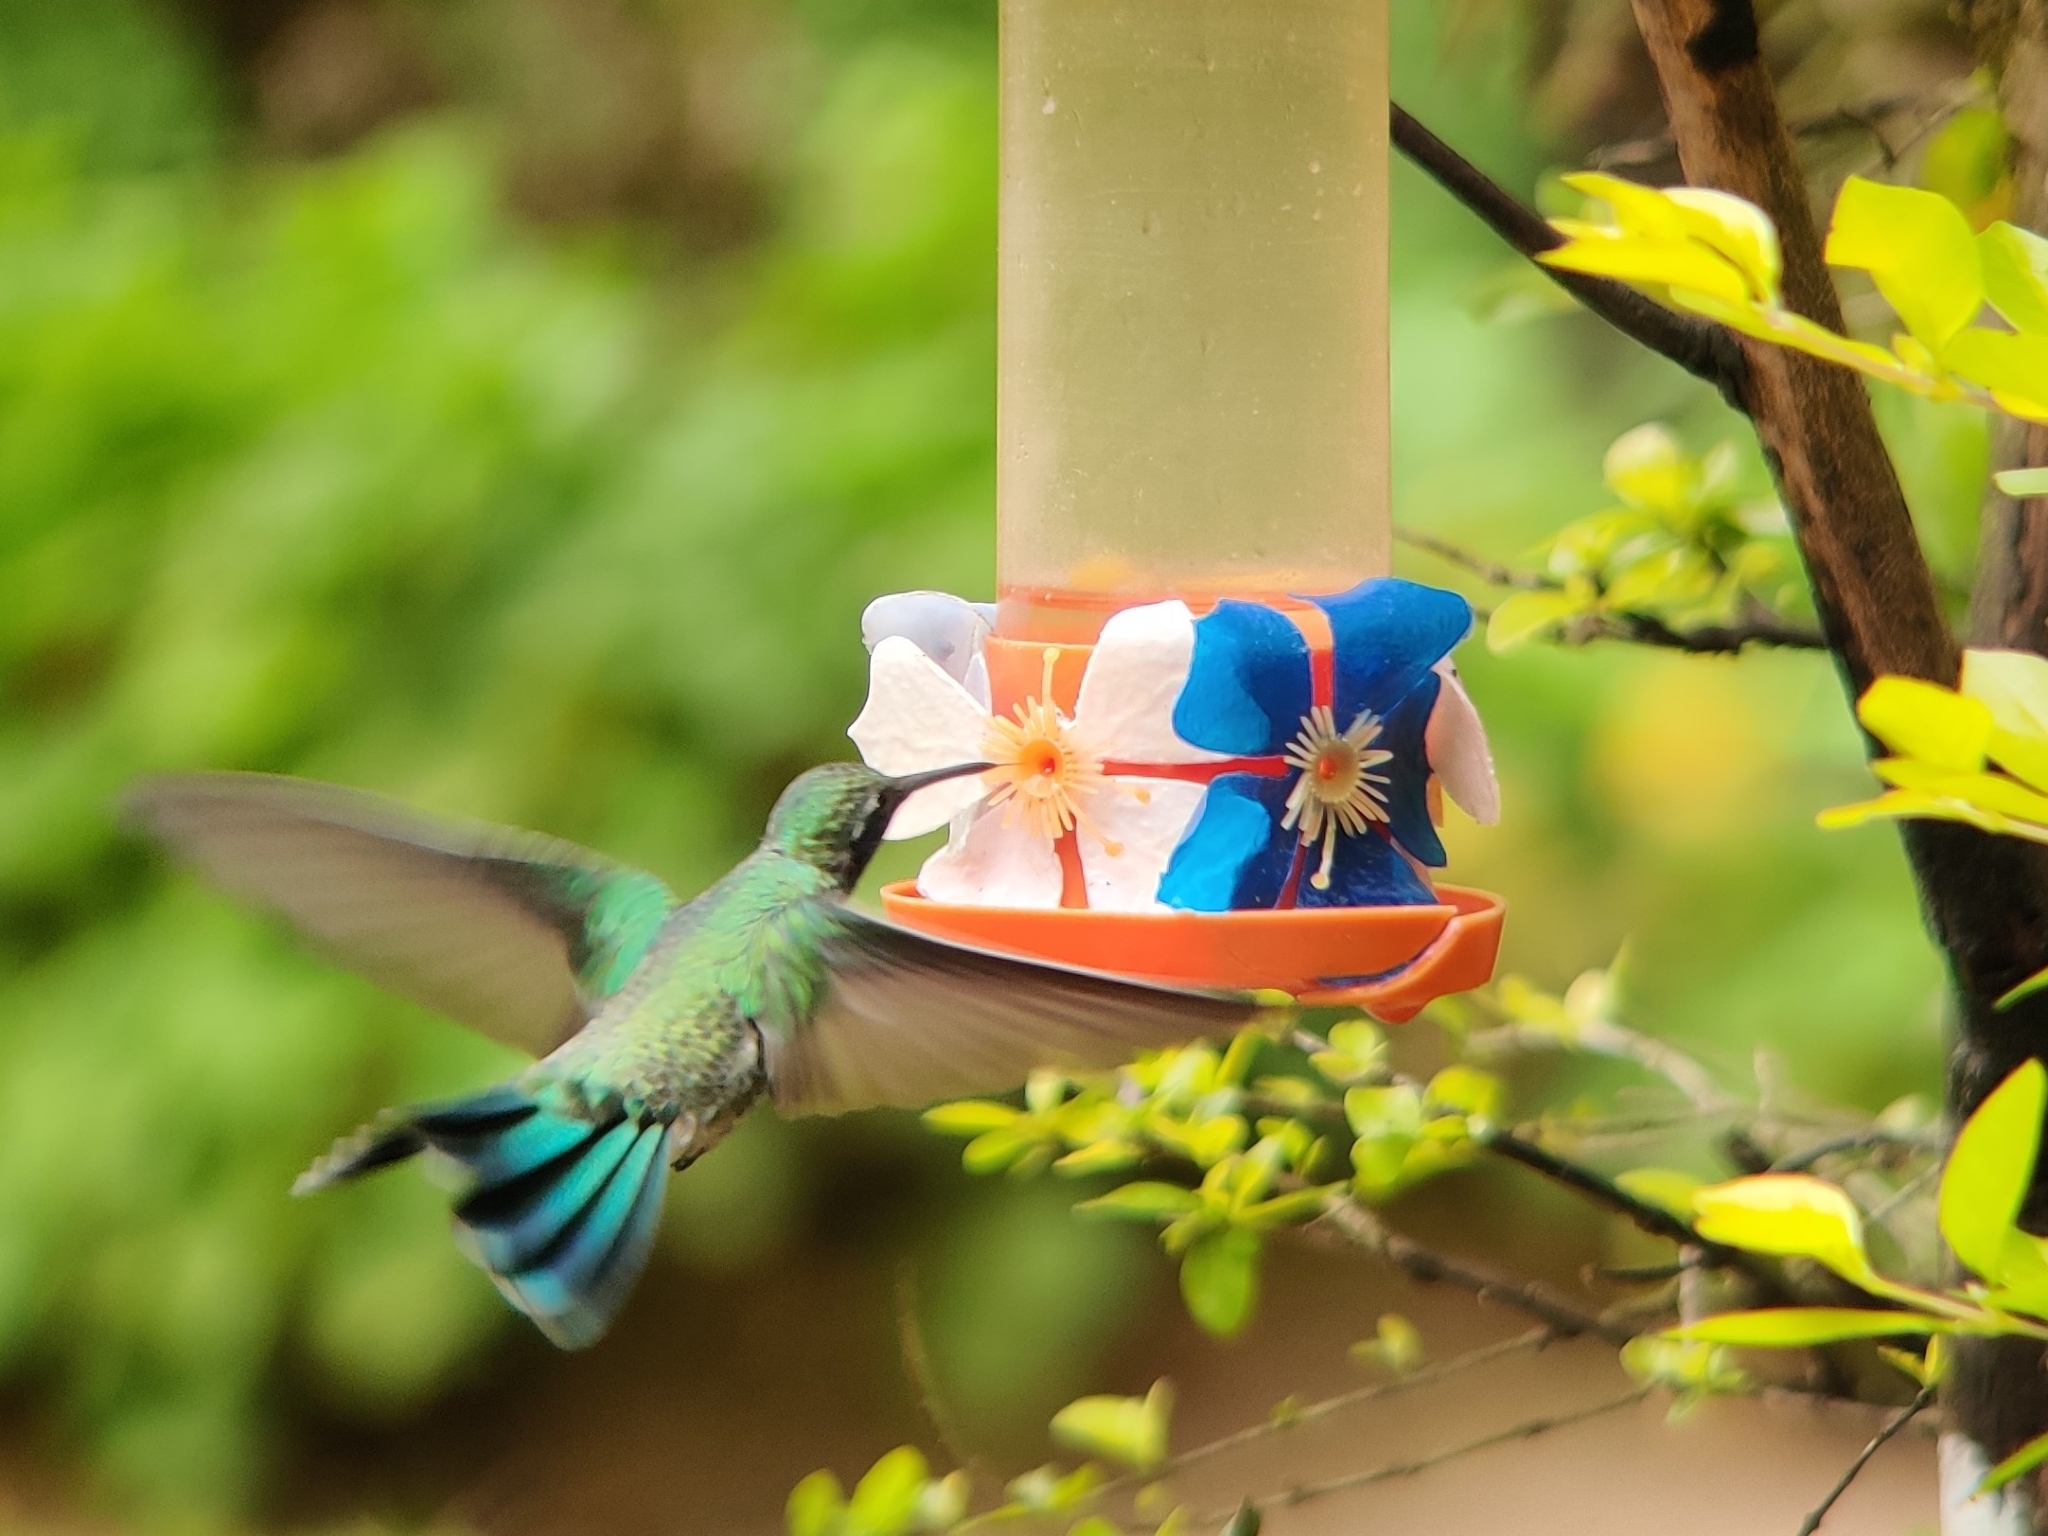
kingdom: Animalia
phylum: Chordata
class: Aves
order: Apodiformes
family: Trochilidae
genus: Colibri
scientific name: Colibri serrirostris
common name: White-vented violetear
